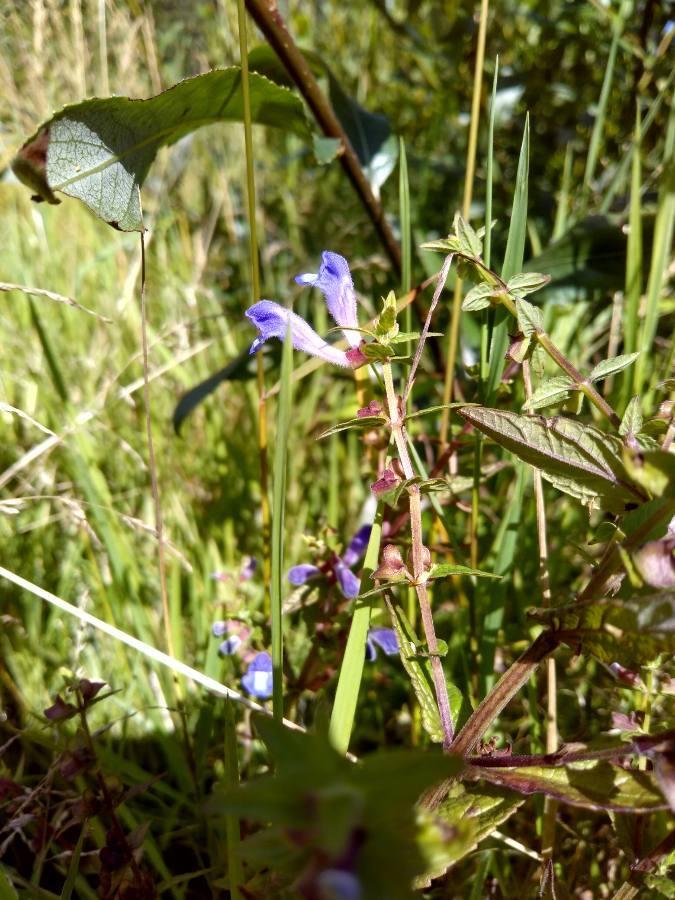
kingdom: Plantae
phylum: Tracheophyta
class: Magnoliopsida
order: Lamiales
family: Lamiaceae
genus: Scutellaria
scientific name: Scutellaria galericulata
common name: Skullcap
